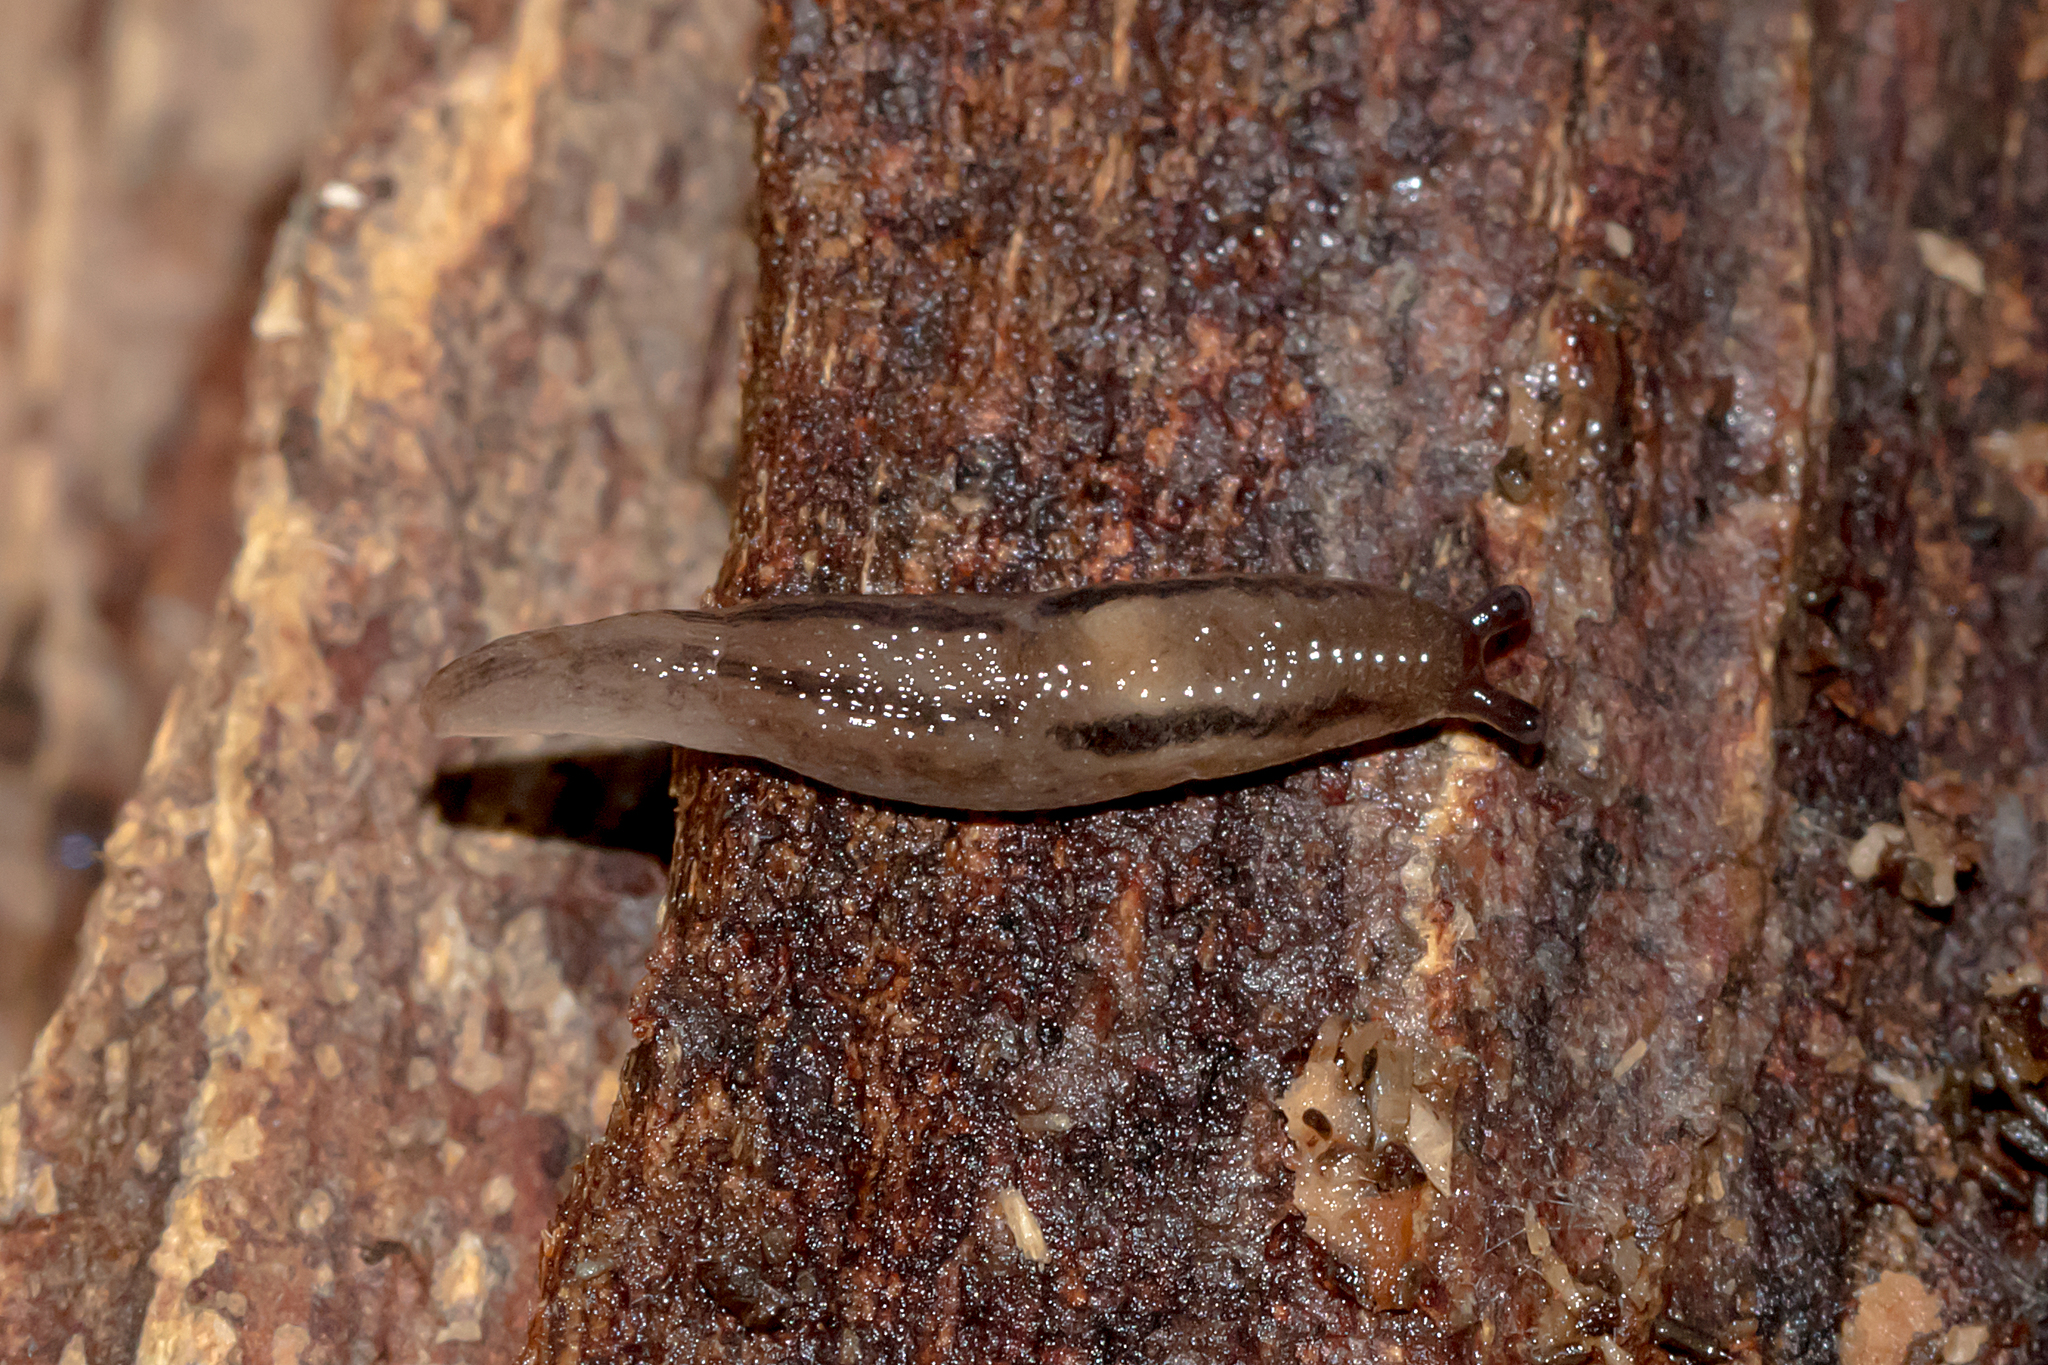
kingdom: Animalia
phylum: Mollusca
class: Gastropoda
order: Stylommatophora
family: Limacidae
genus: Ambigolimax
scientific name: Ambigolimax
